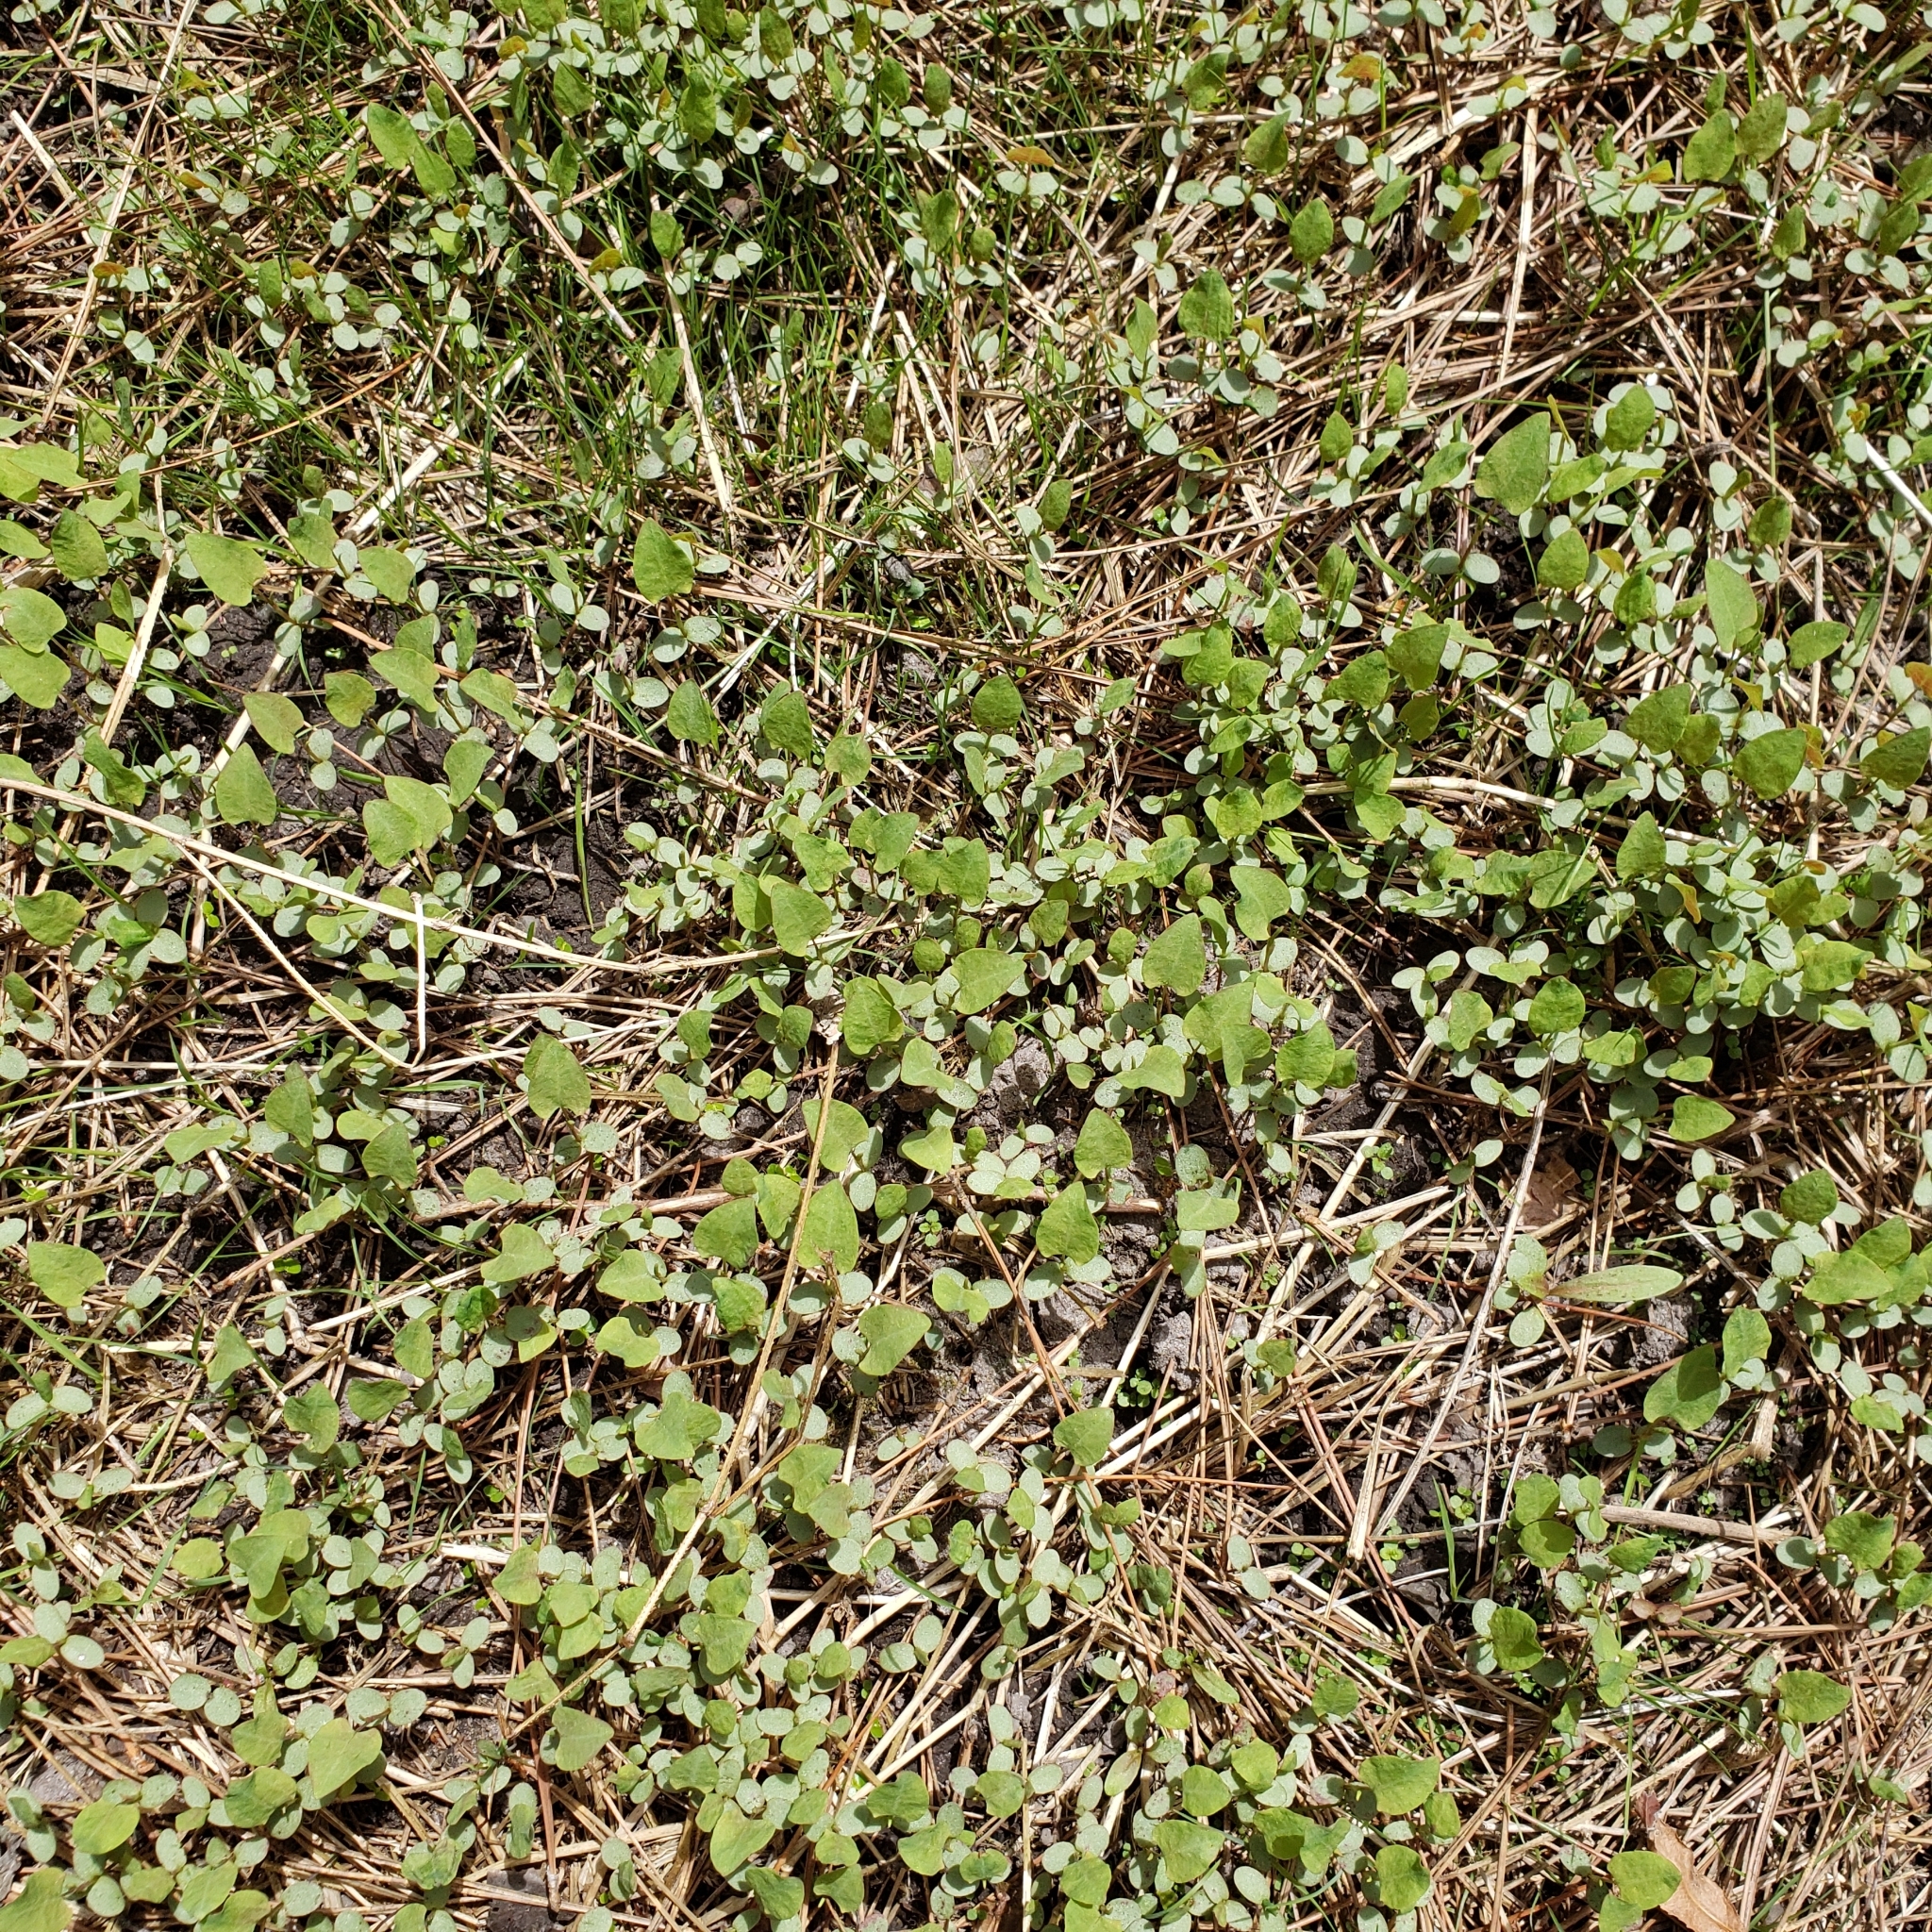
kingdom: Plantae
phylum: Tracheophyta
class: Magnoliopsida
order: Brassicales
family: Brassicaceae
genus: Alliaria
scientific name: Alliaria petiolata
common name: Garlic mustard
